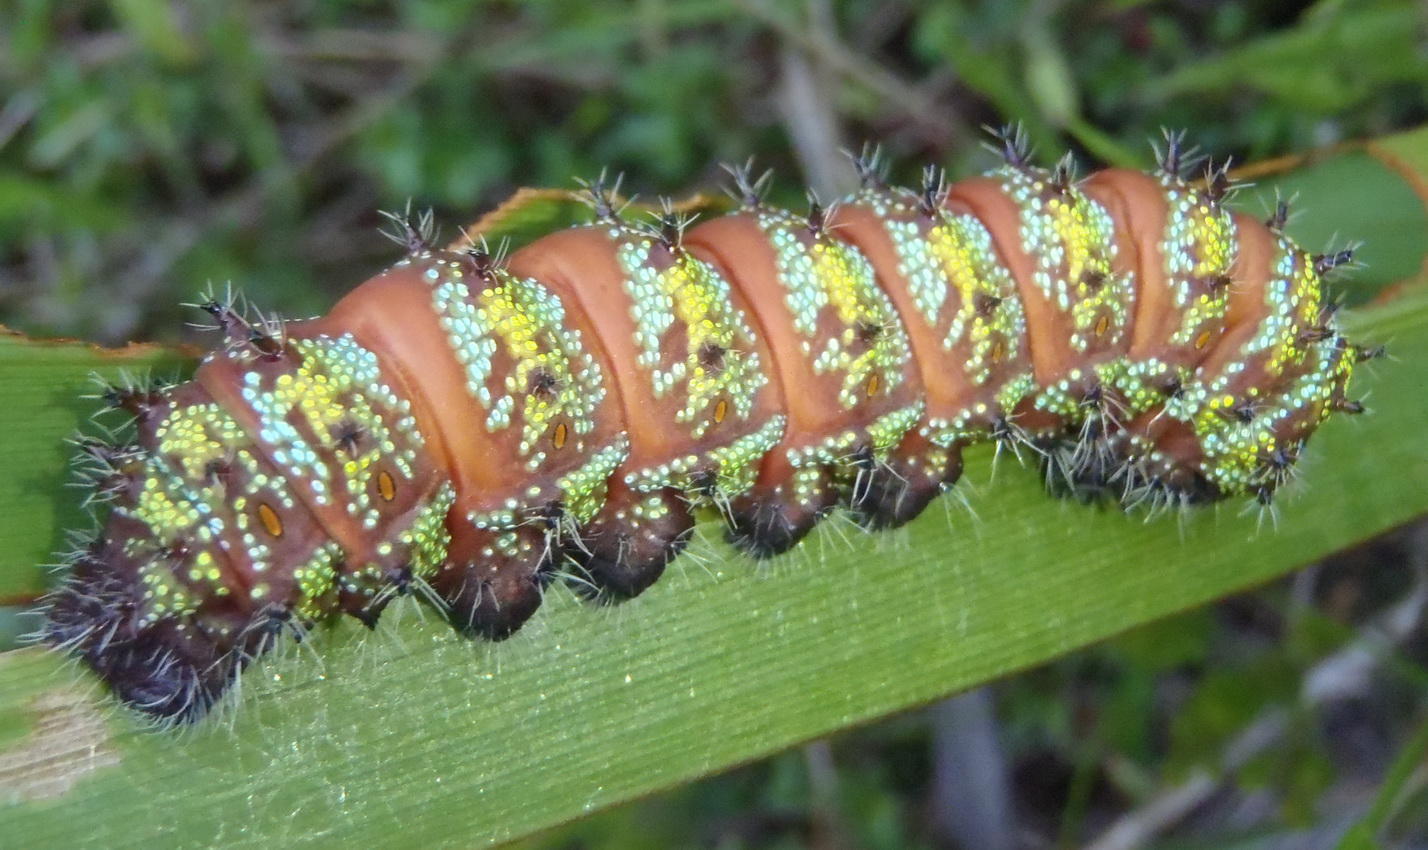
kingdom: Animalia
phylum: Arthropoda
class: Insecta
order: Lepidoptera
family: Saturniidae
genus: Nudaurelia
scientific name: Nudaurelia cytherea
